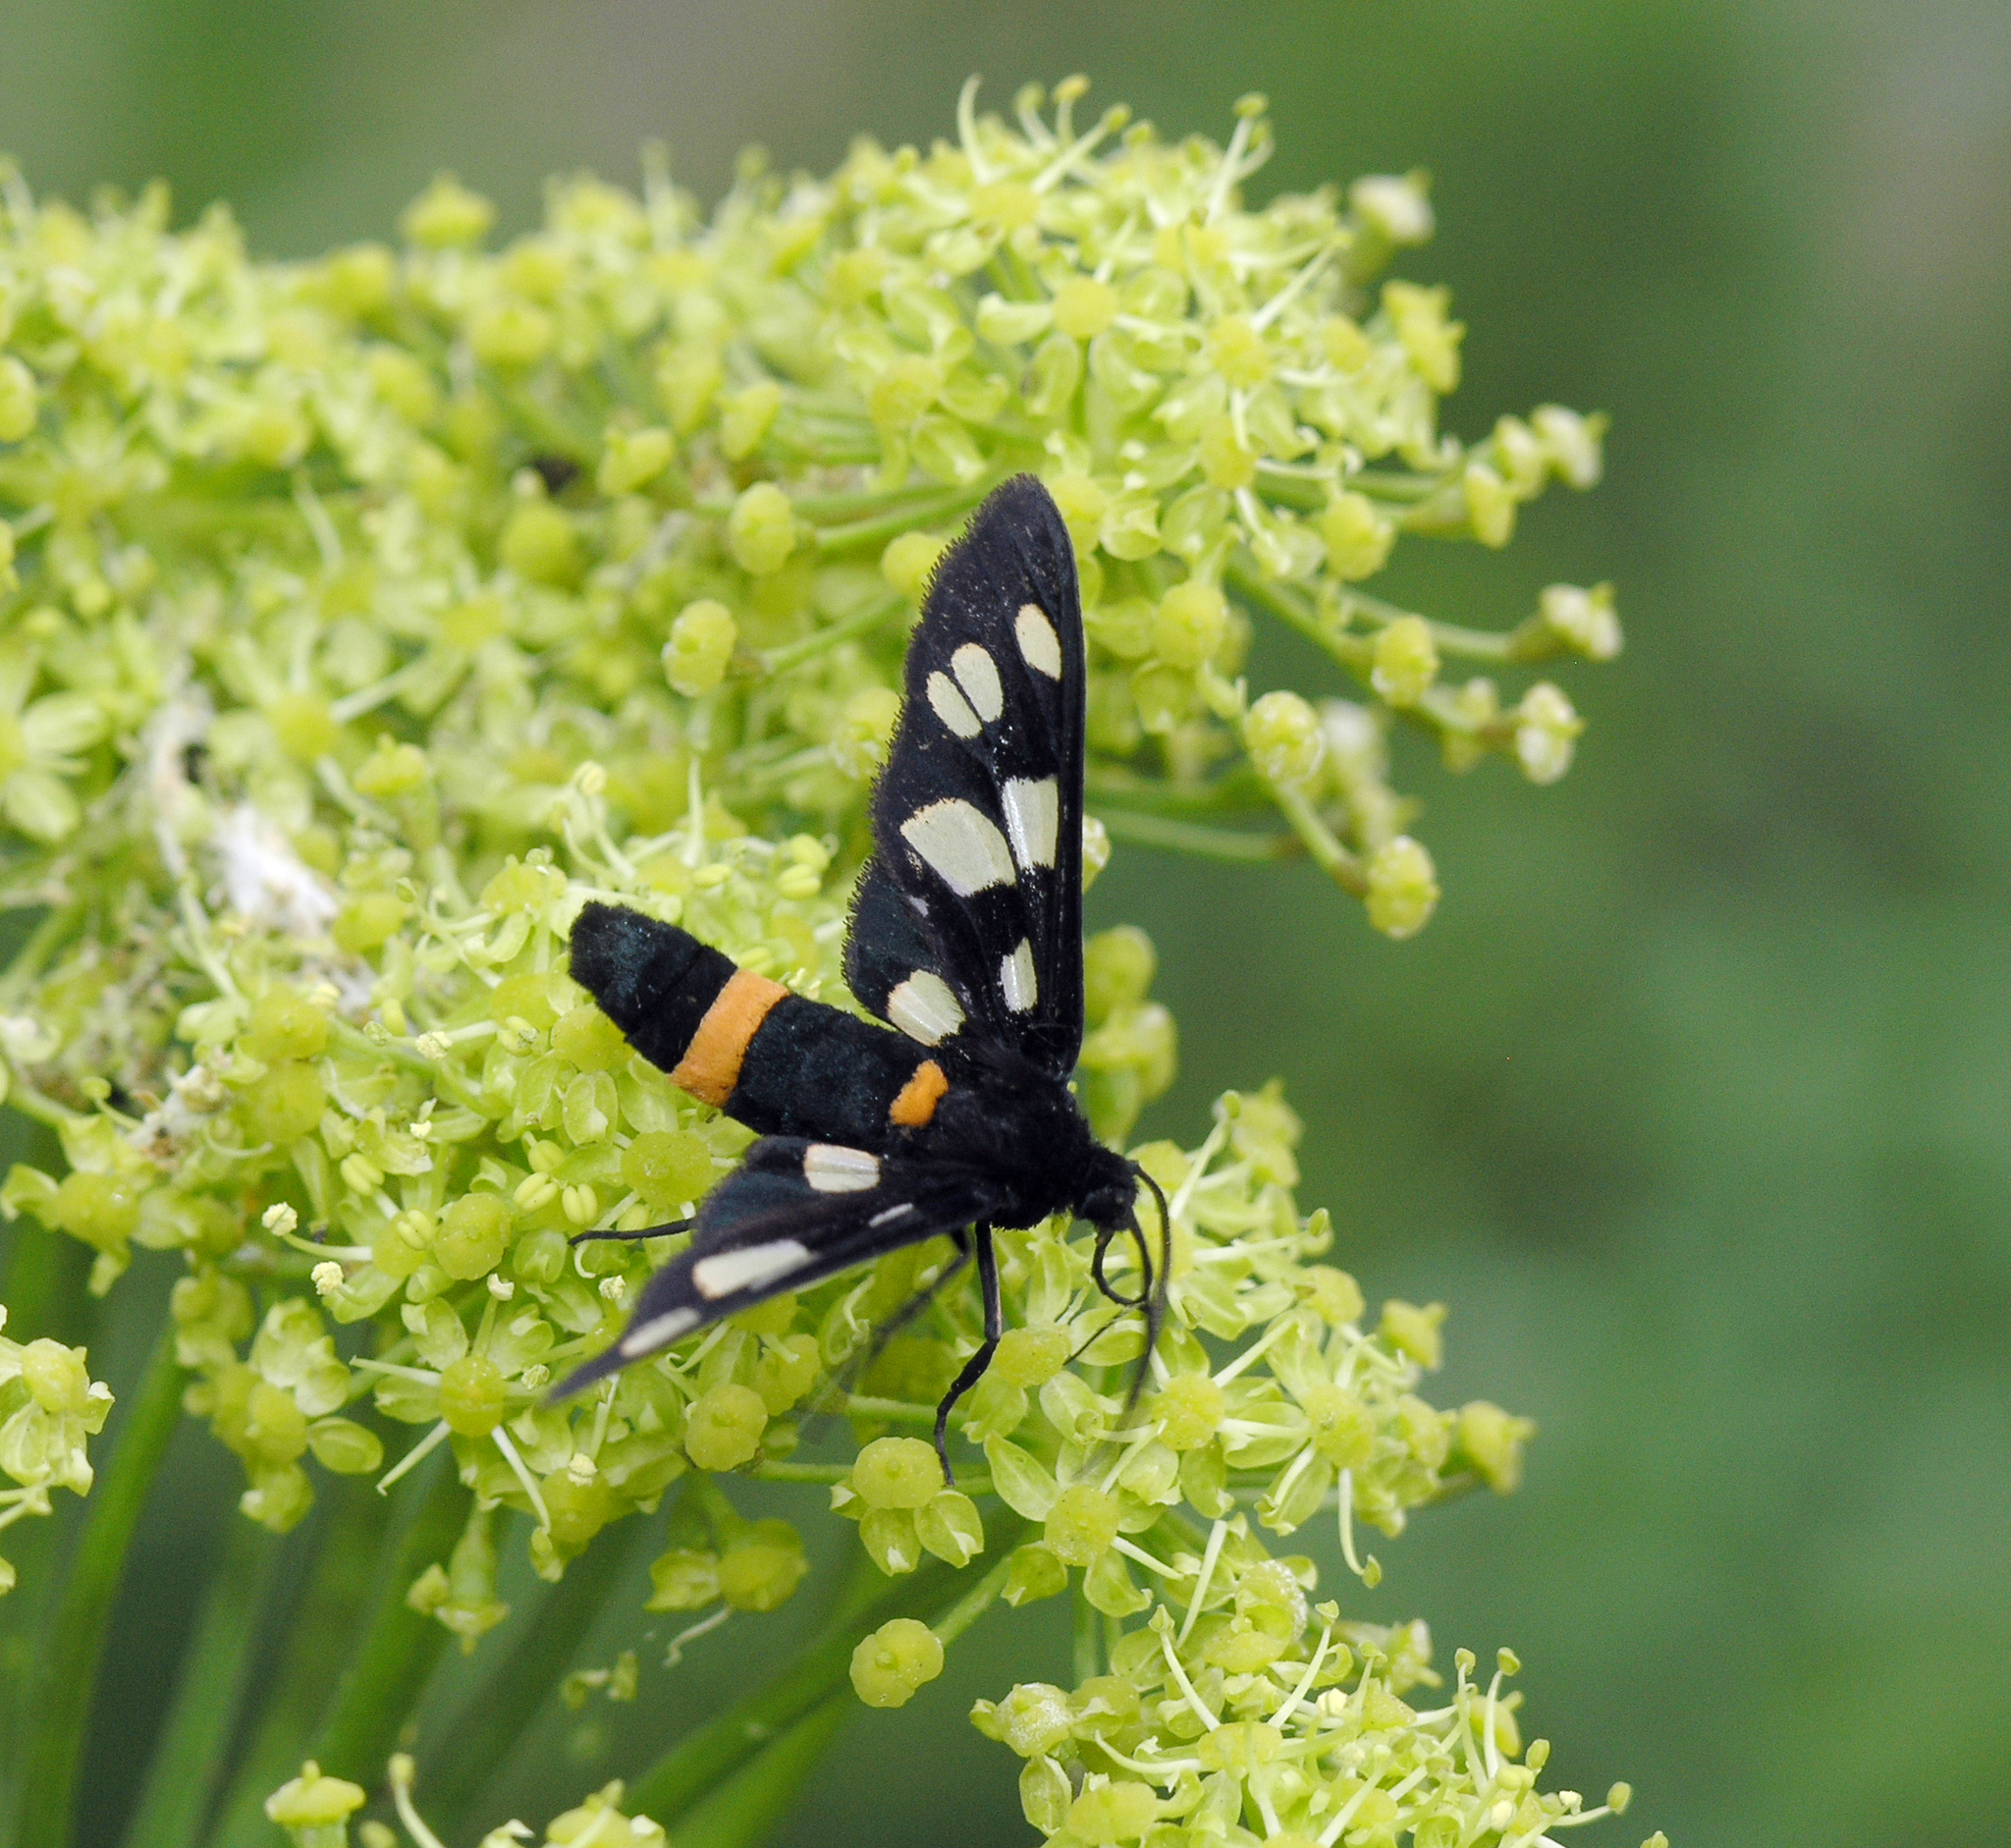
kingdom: Plantae
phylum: Tracheophyta
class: Magnoliopsida
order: Apiales
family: Apiaceae
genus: Heracleum
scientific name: Heracleum sphondylium
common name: Hogweed
